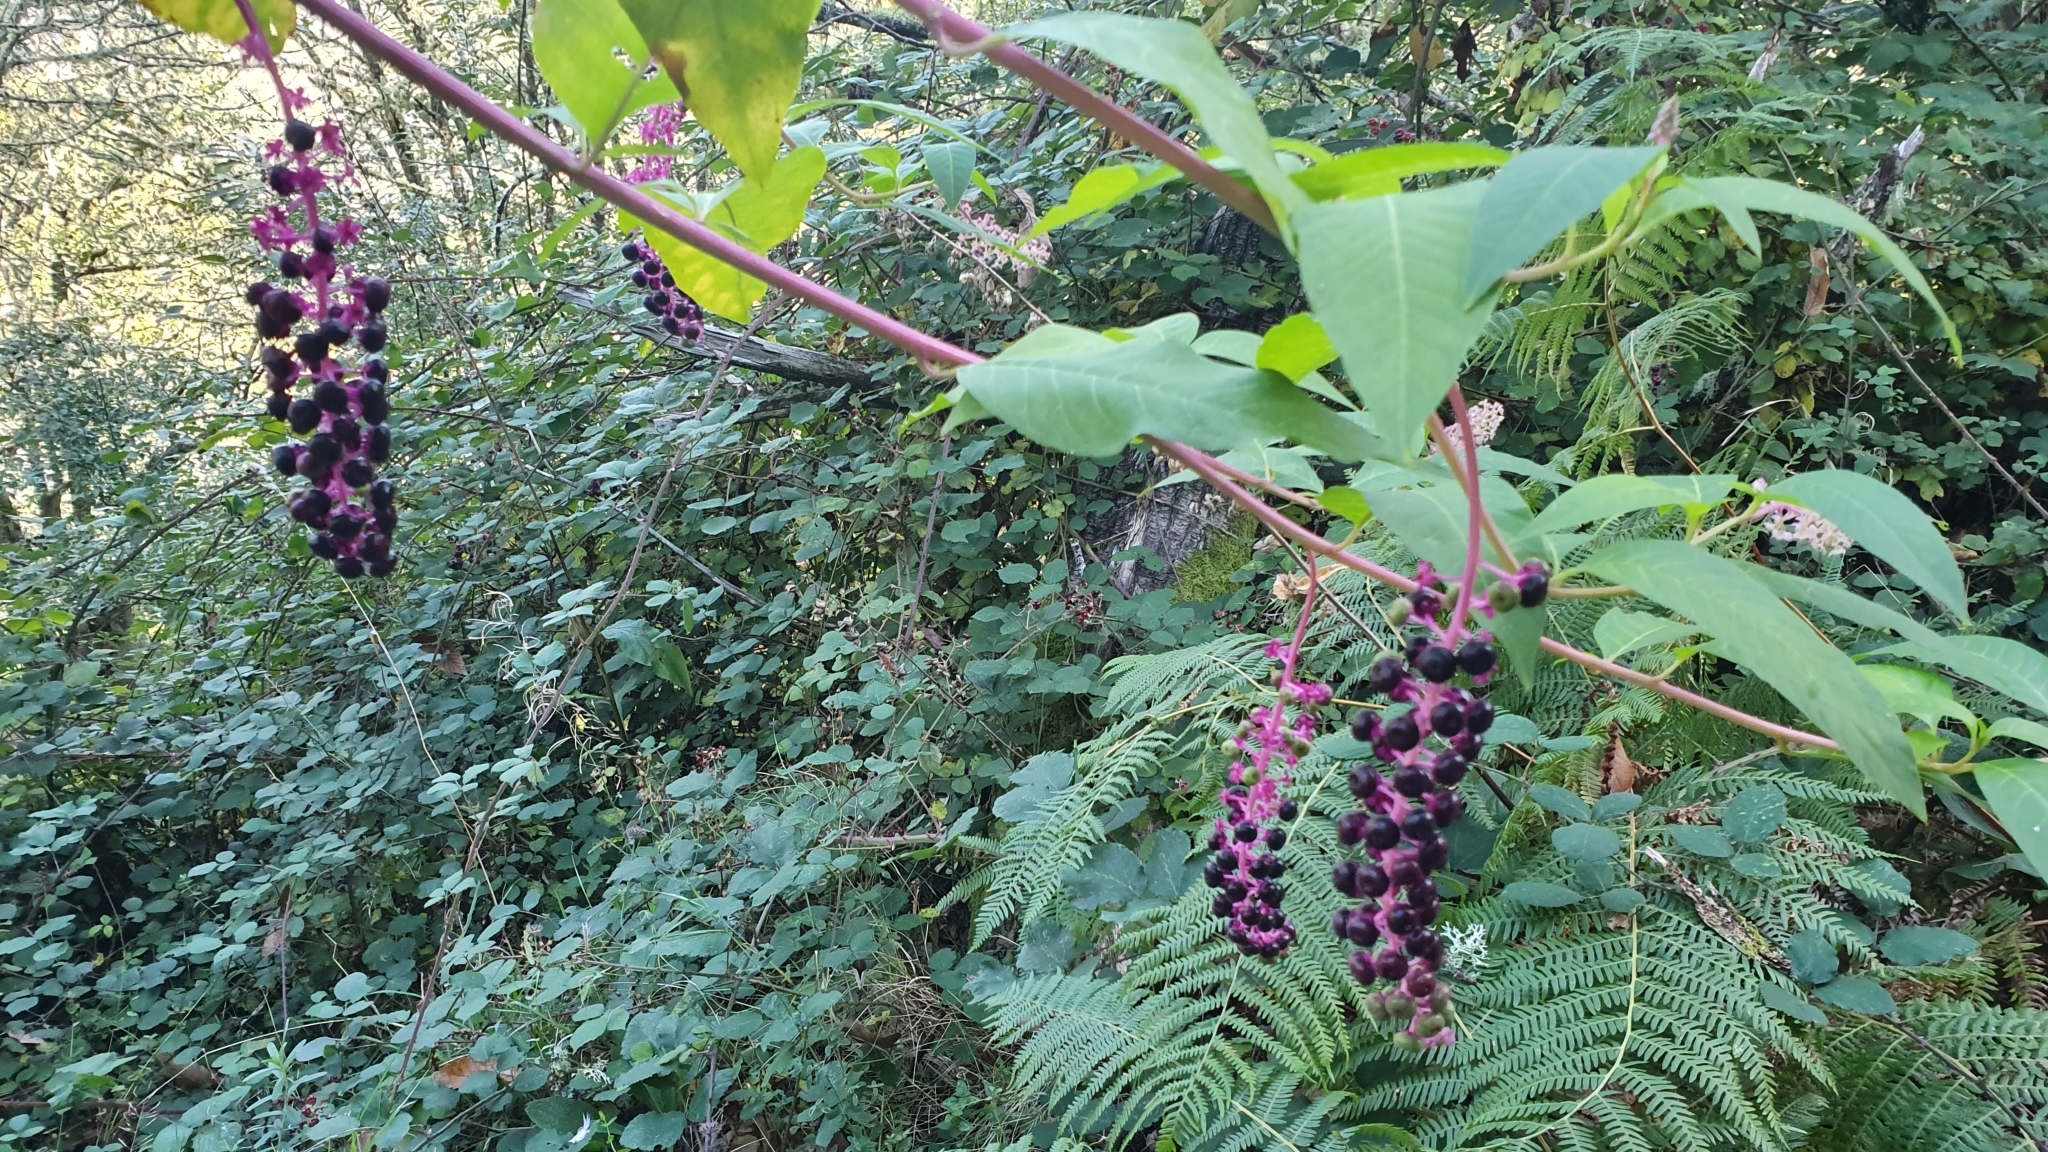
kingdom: Plantae
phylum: Tracheophyta
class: Magnoliopsida
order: Caryophyllales
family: Phytolaccaceae
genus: Phytolacca
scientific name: Phytolacca americana
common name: American pokeweed
